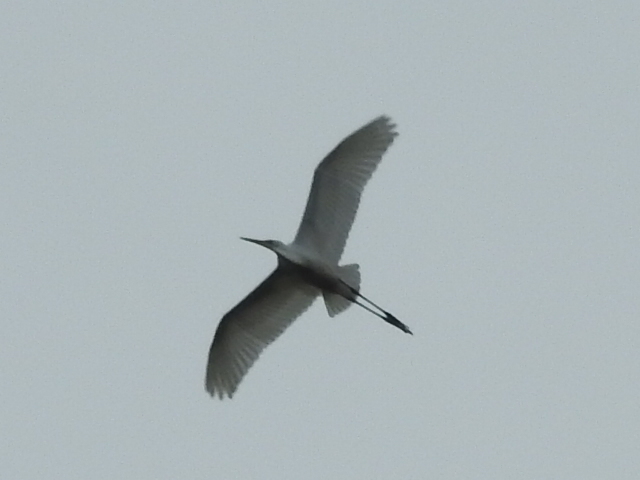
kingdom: Animalia
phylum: Chordata
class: Aves
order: Pelecaniformes
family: Ardeidae
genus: Ardea
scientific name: Ardea alba
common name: Great egret
